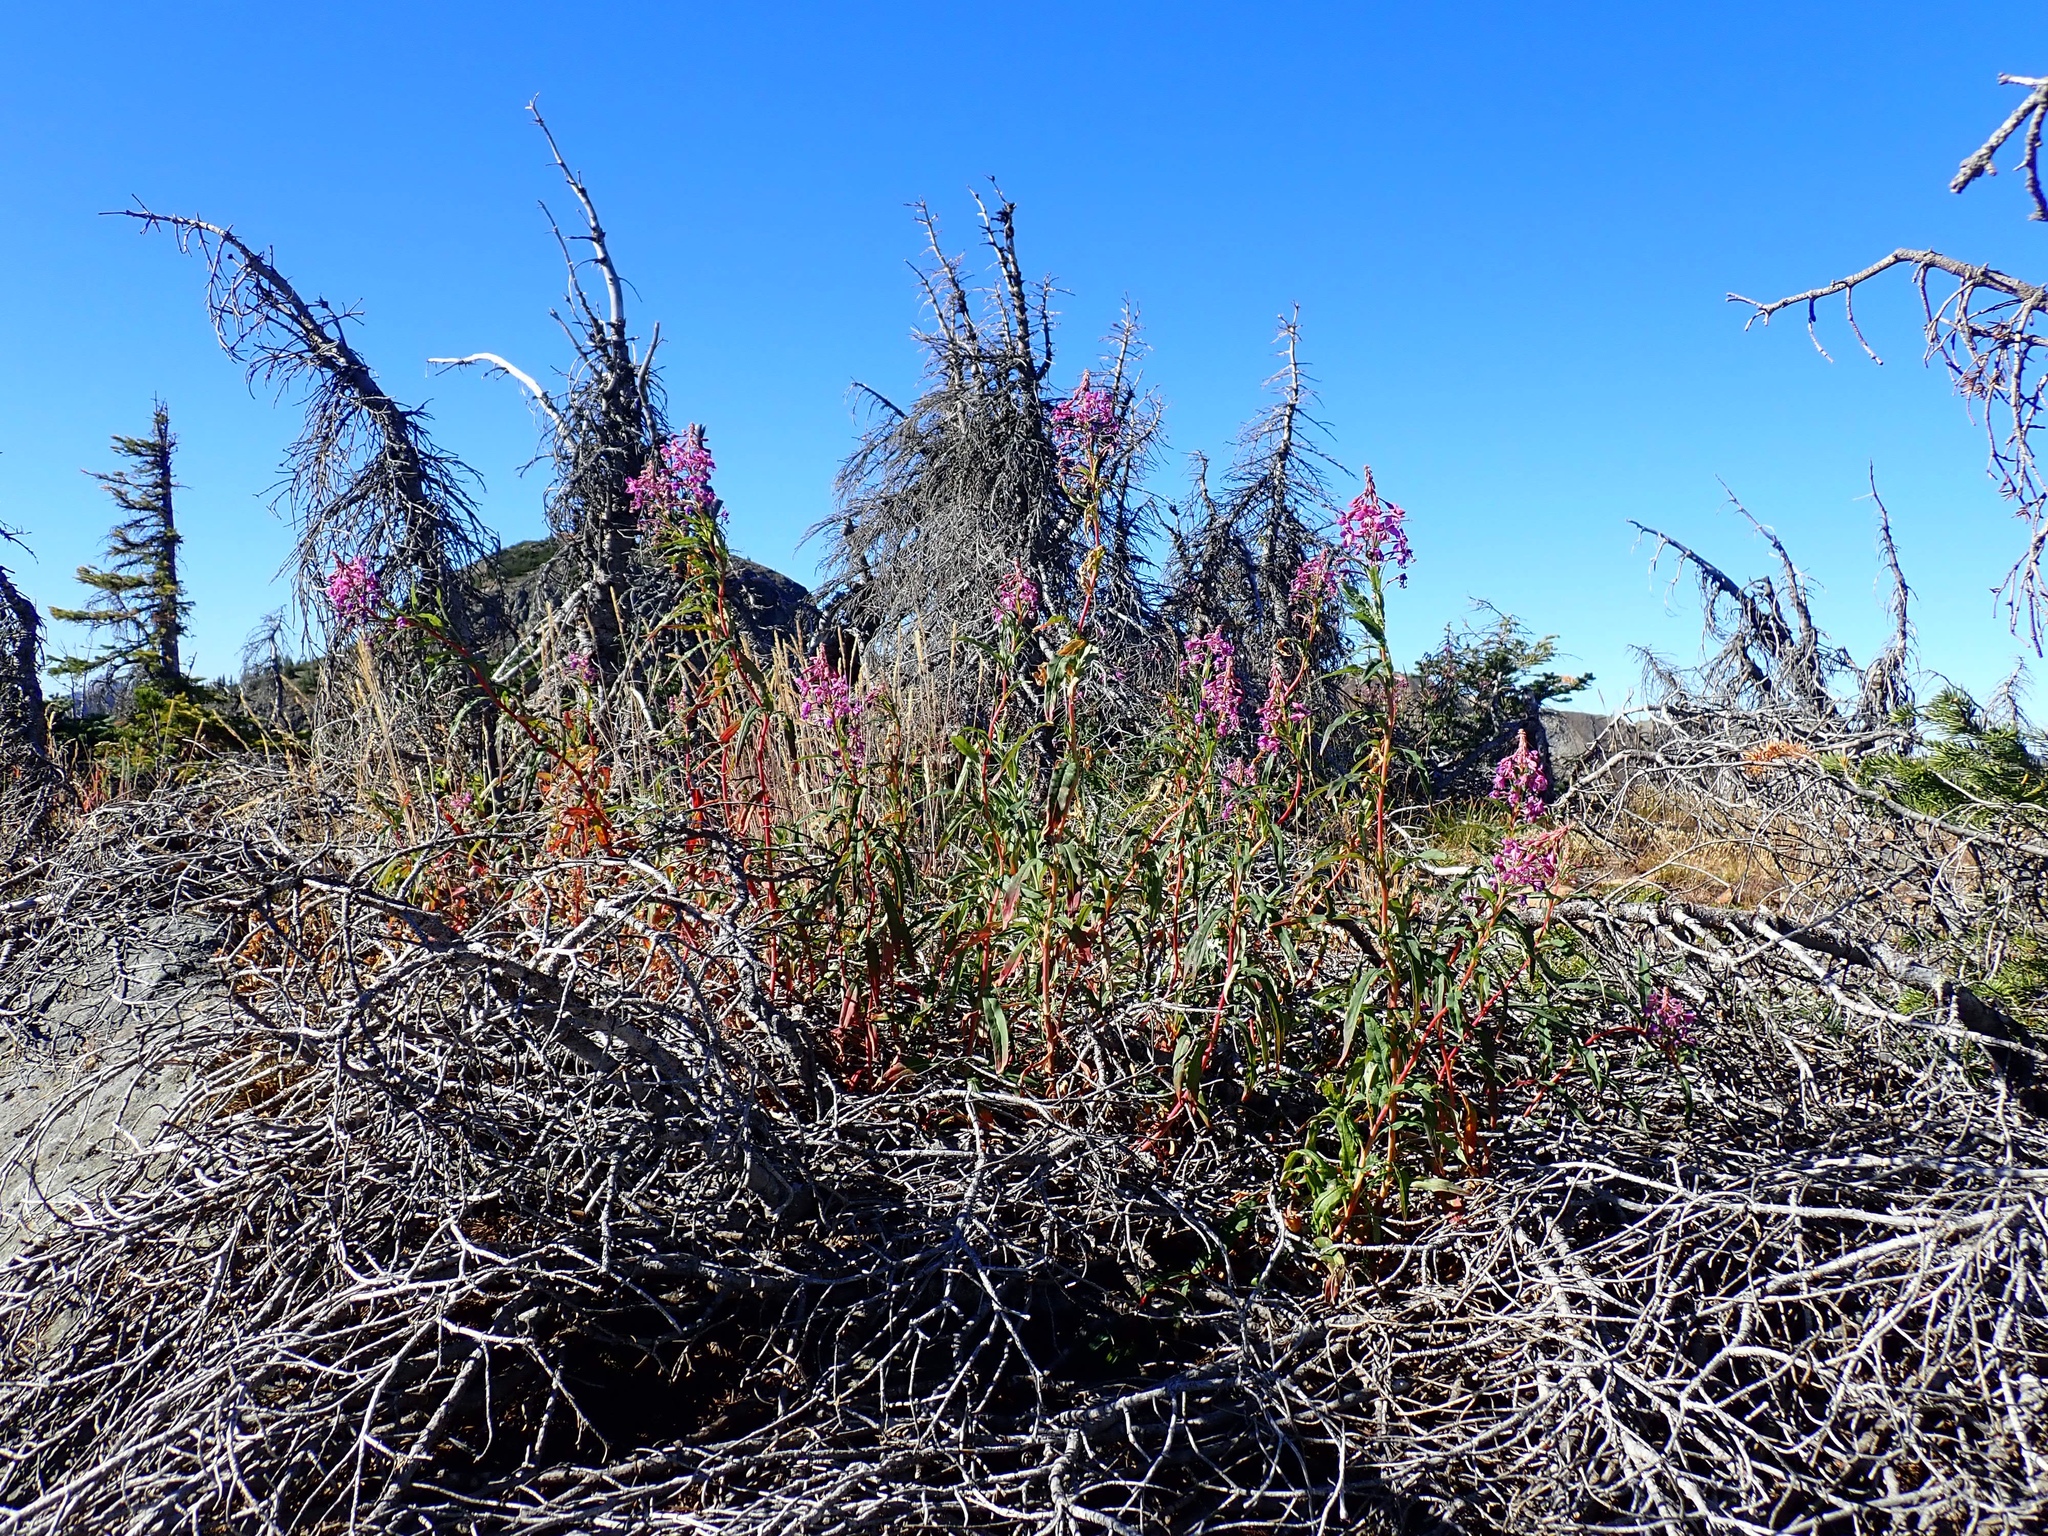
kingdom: Plantae
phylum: Tracheophyta
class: Magnoliopsida
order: Myrtales
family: Onagraceae
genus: Chamaenerion
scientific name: Chamaenerion angustifolium
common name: Fireweed
